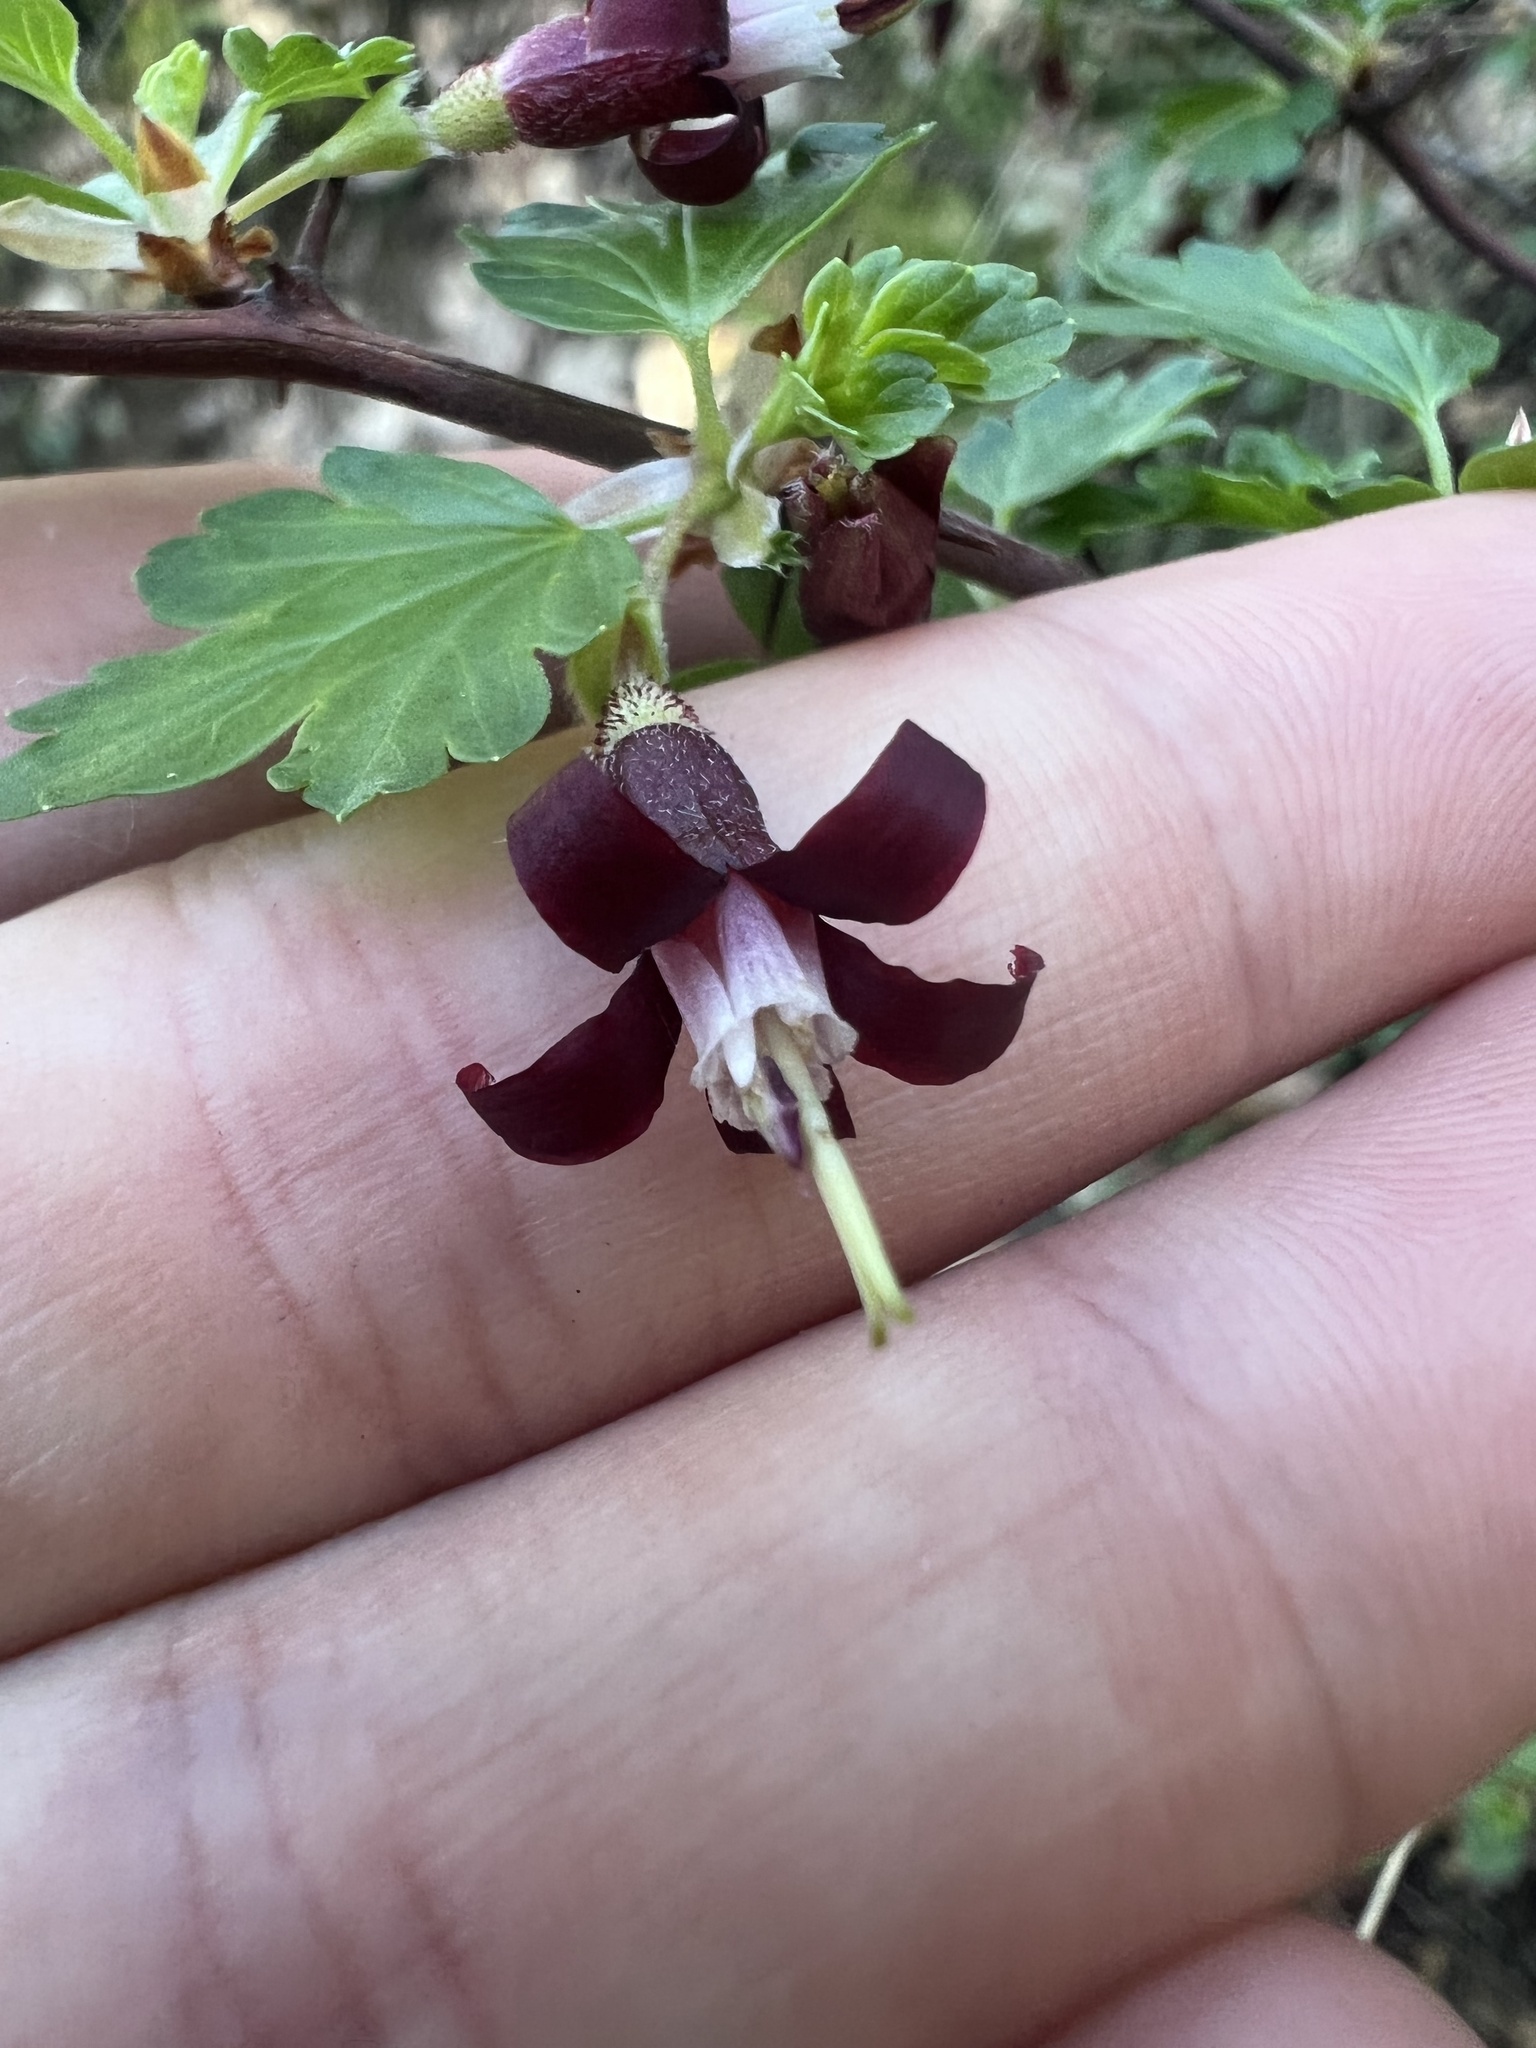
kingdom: Plantae
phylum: Tracheophyta
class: Magnoliopsida
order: Saxifragales
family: Grossulariaceae
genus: Ribes
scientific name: Ribes roezlii
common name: Sierra gooseberry
